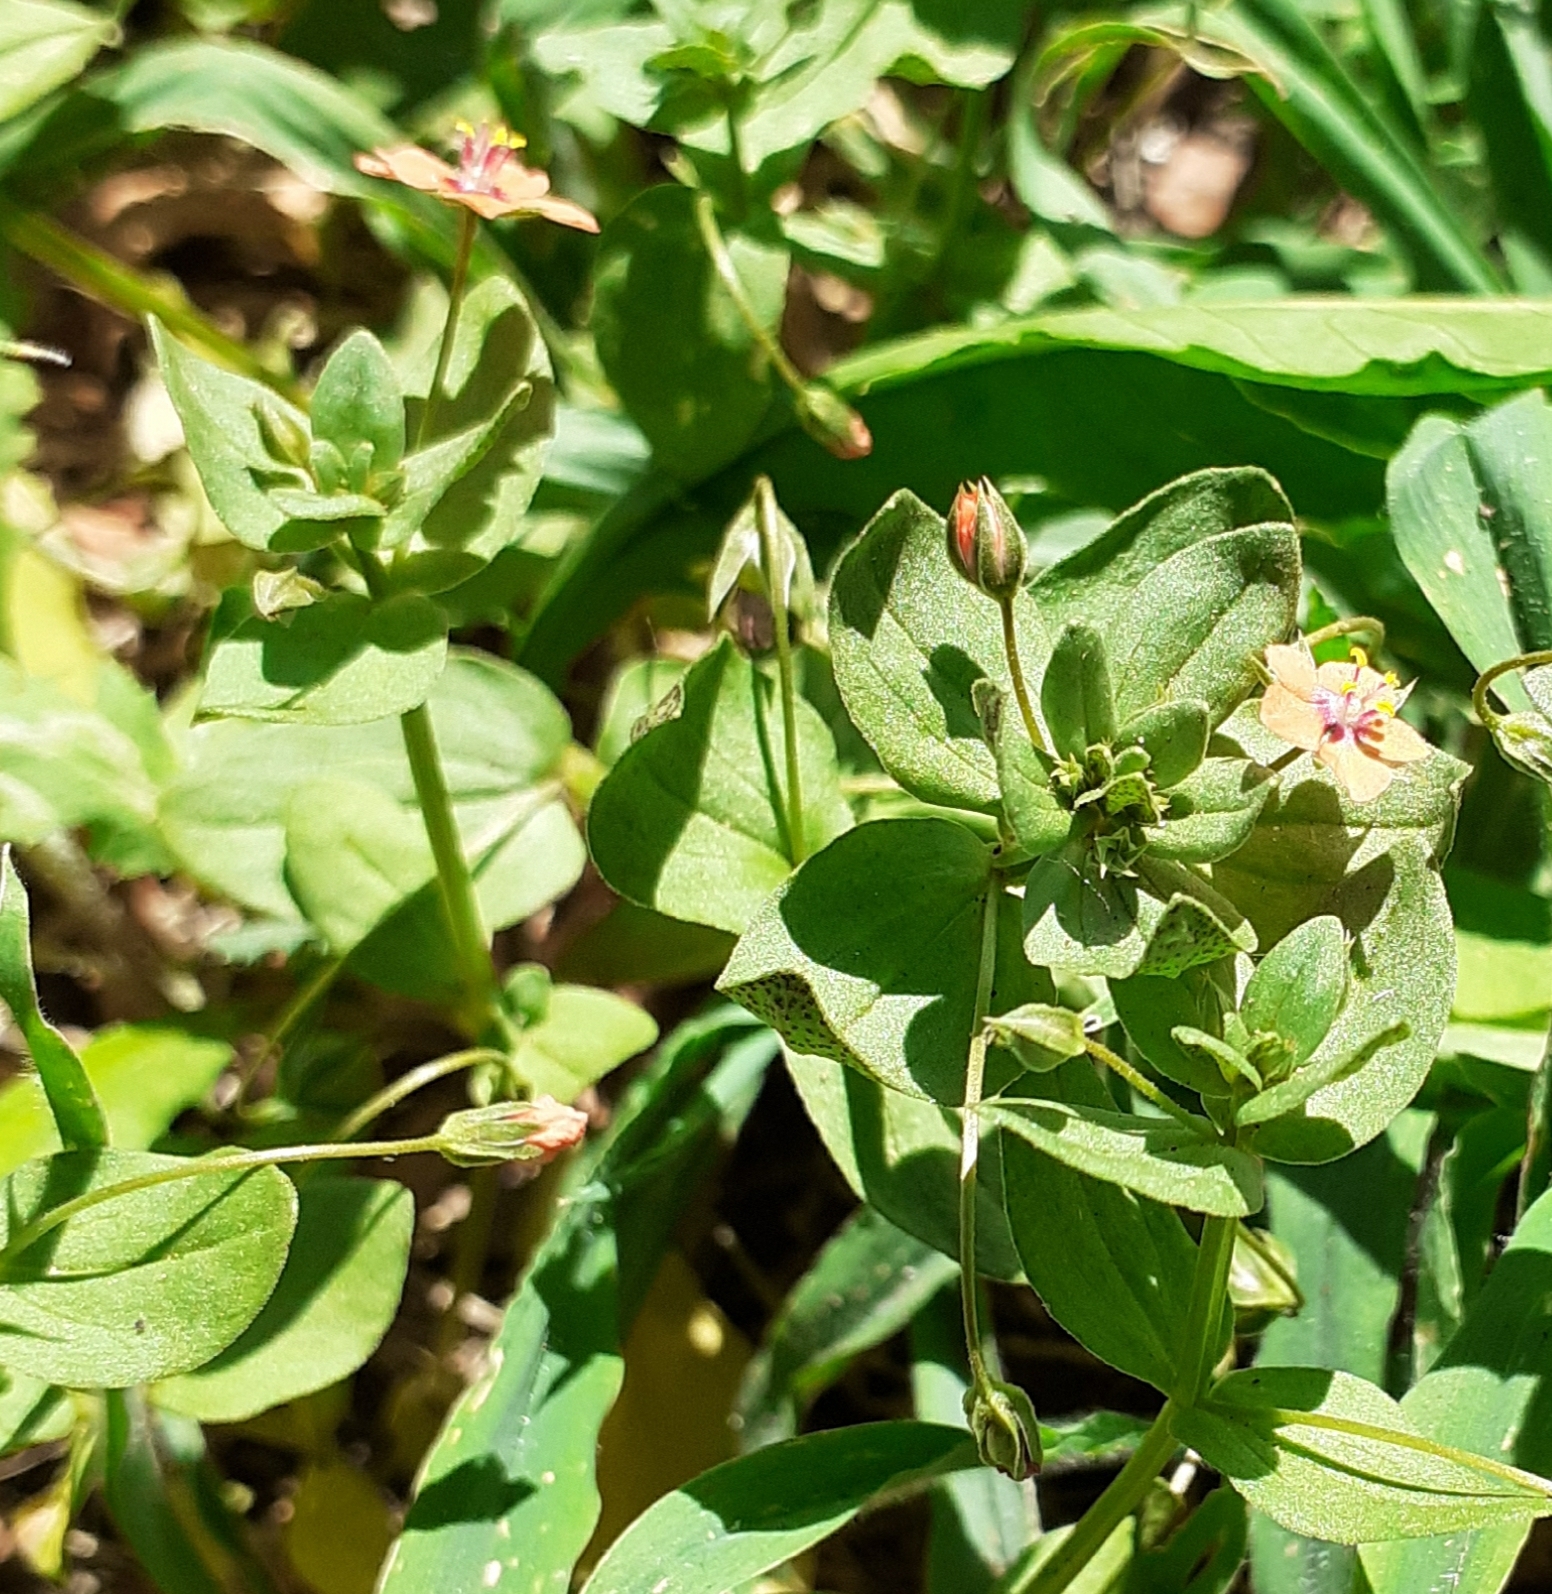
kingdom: Plantae
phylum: Tracheophyta
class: Magnoliopsida
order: Ericales
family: Primulaceae
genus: Lysimachia
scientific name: Lysimachia arvensis
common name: Scarlet pimpernel
